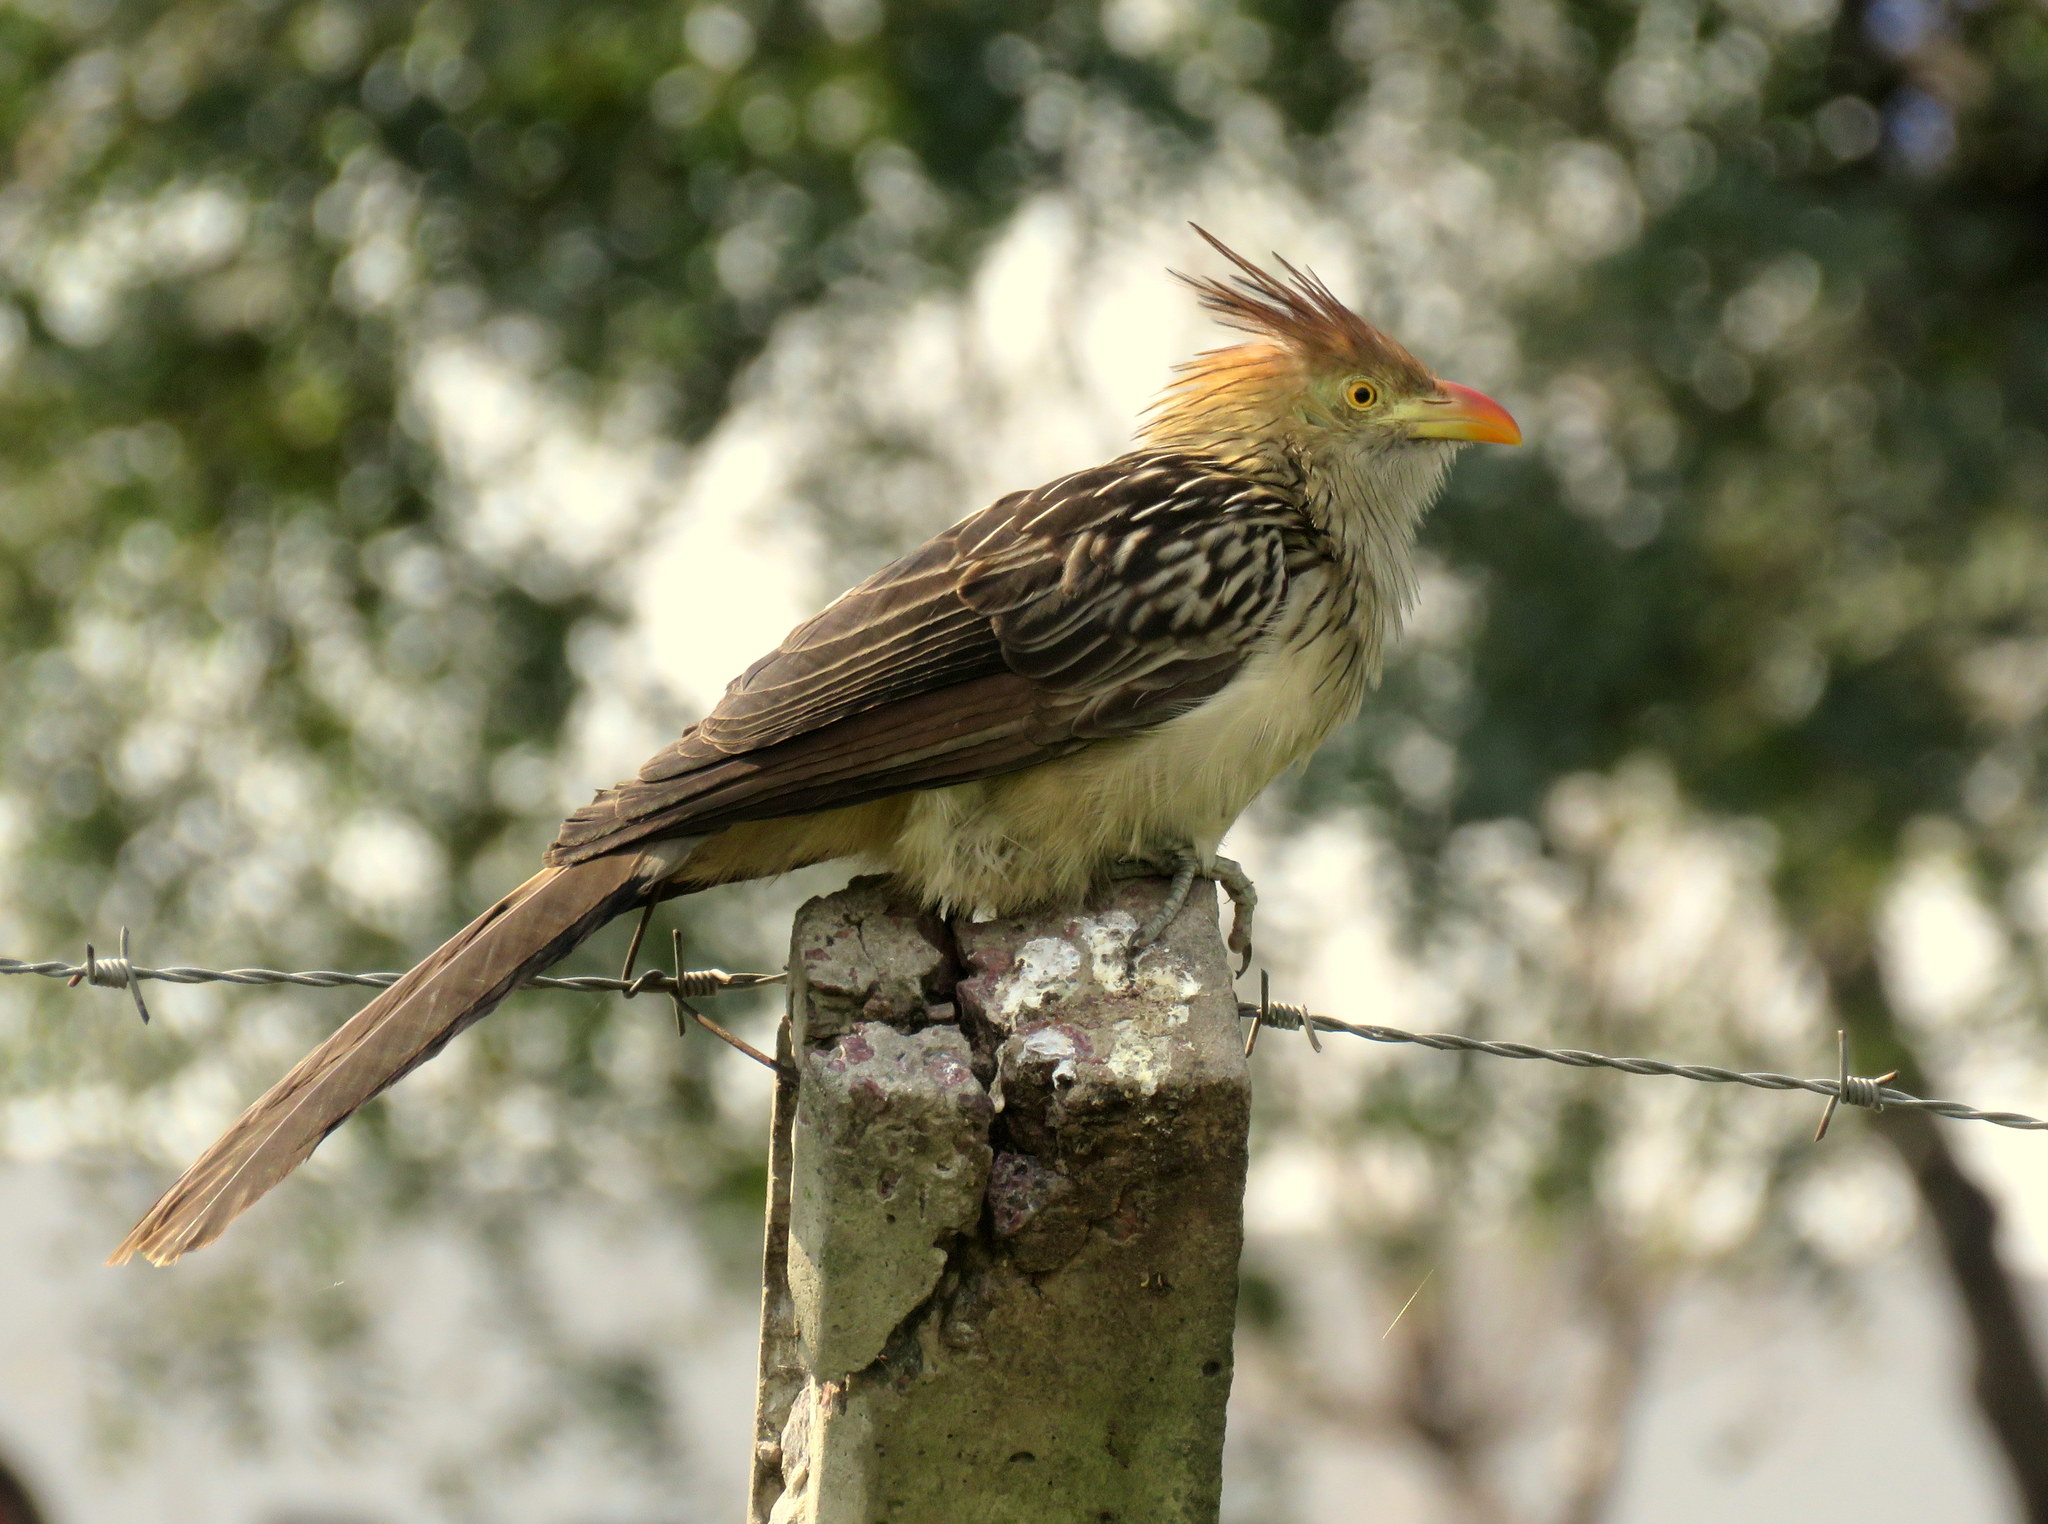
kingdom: Animalia
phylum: Chordata
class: Aves
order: Cuculiformes
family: Cuculidae
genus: Guira
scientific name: Guira guira
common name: Guira cuckoo
